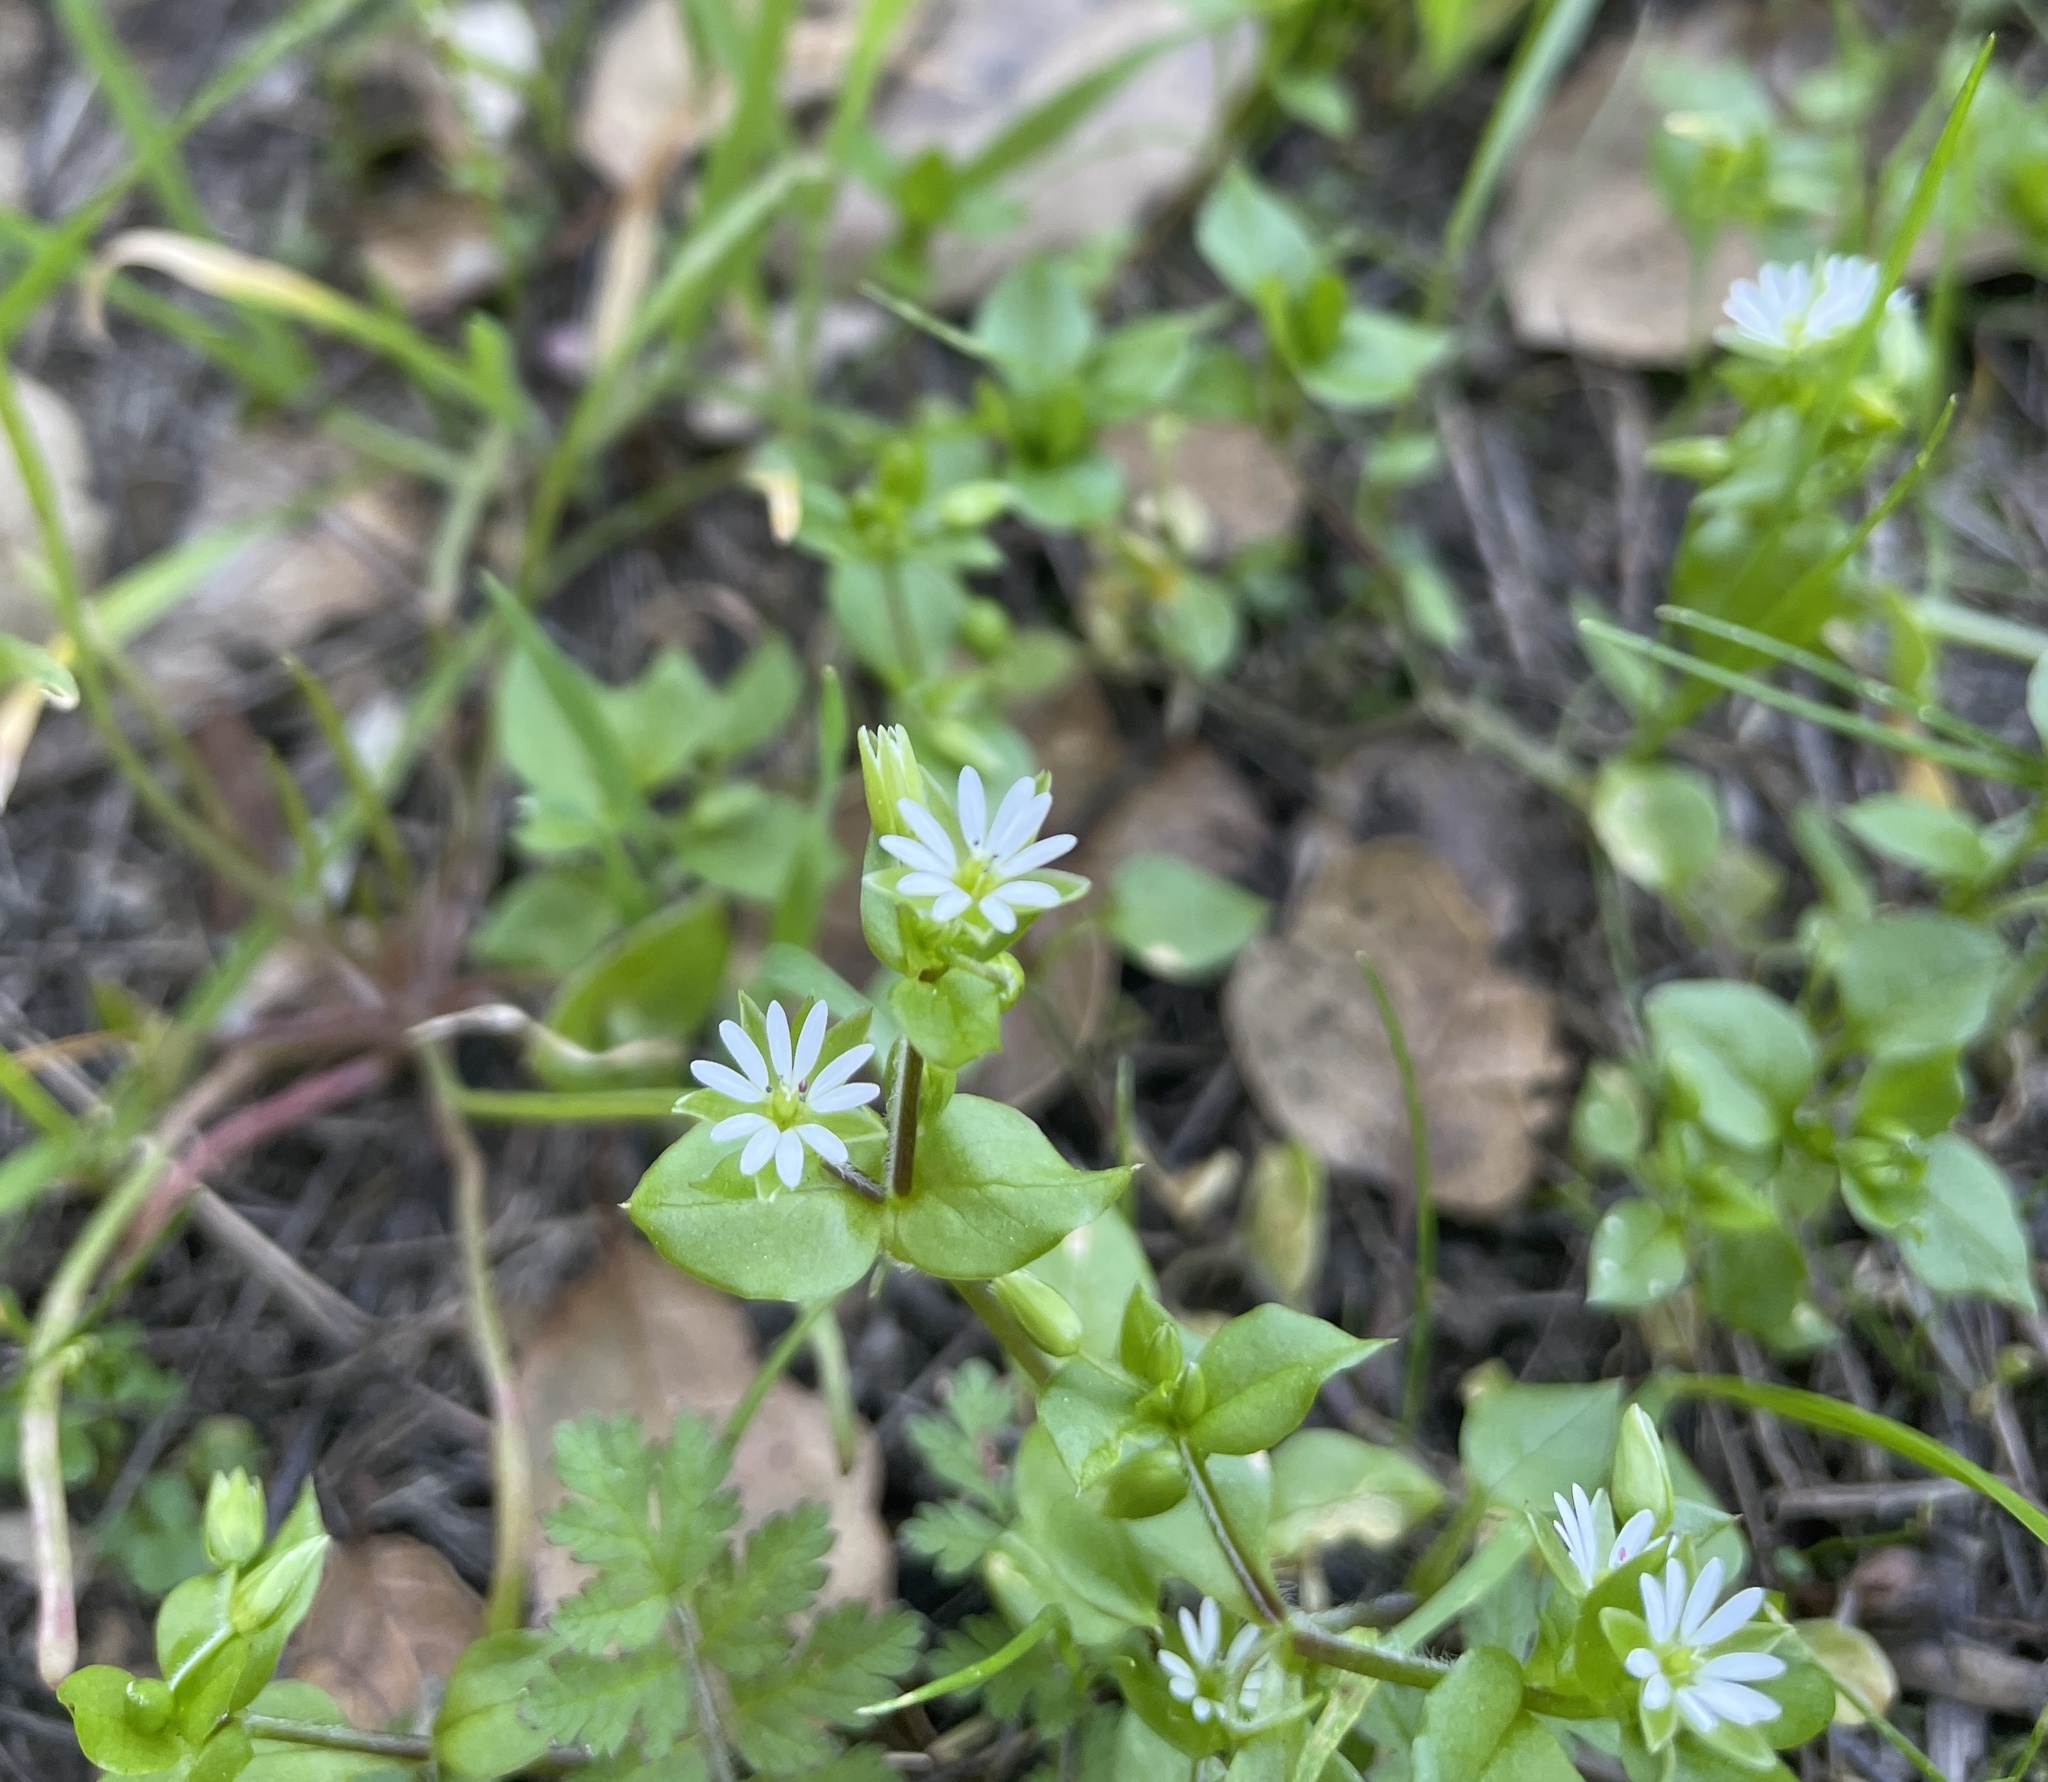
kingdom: Plantae
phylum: Tracheophyta
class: Magnoliopsida
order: Caryophyllales
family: Caryophyllaceae
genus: Stellaria
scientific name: Stellaria media
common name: Common chickweed
